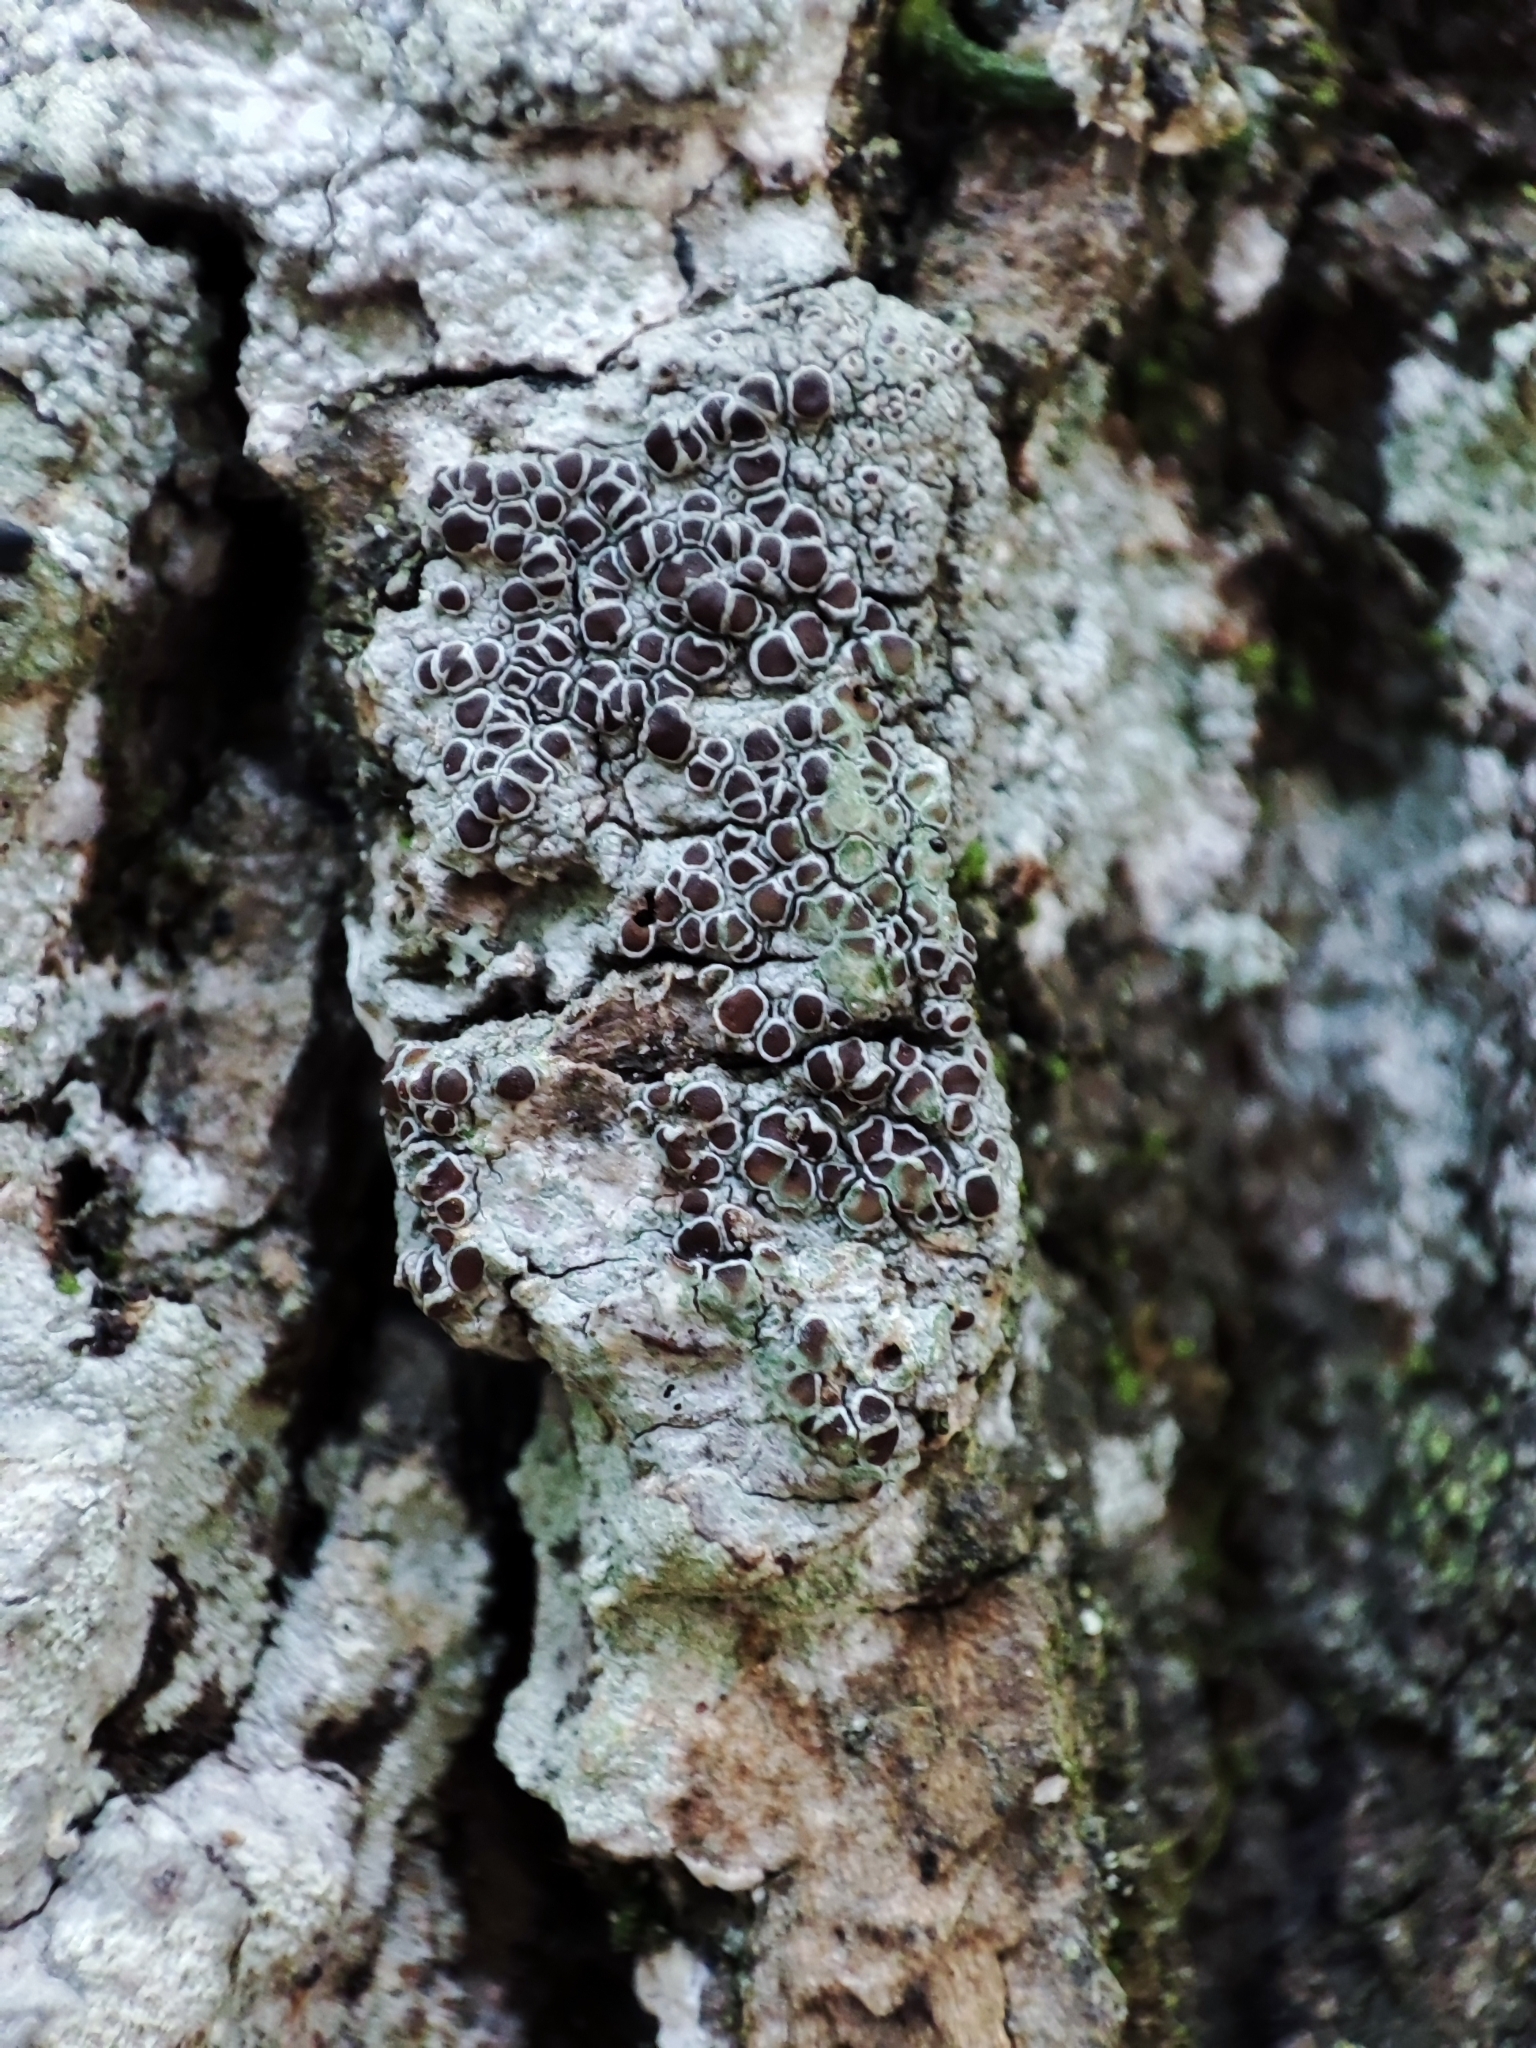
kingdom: Fungi
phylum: Ascomycota
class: Lecanoromycetes
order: Lecanorales
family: Lecanoraceae
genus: Lecanora
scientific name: Lecanora argentata
